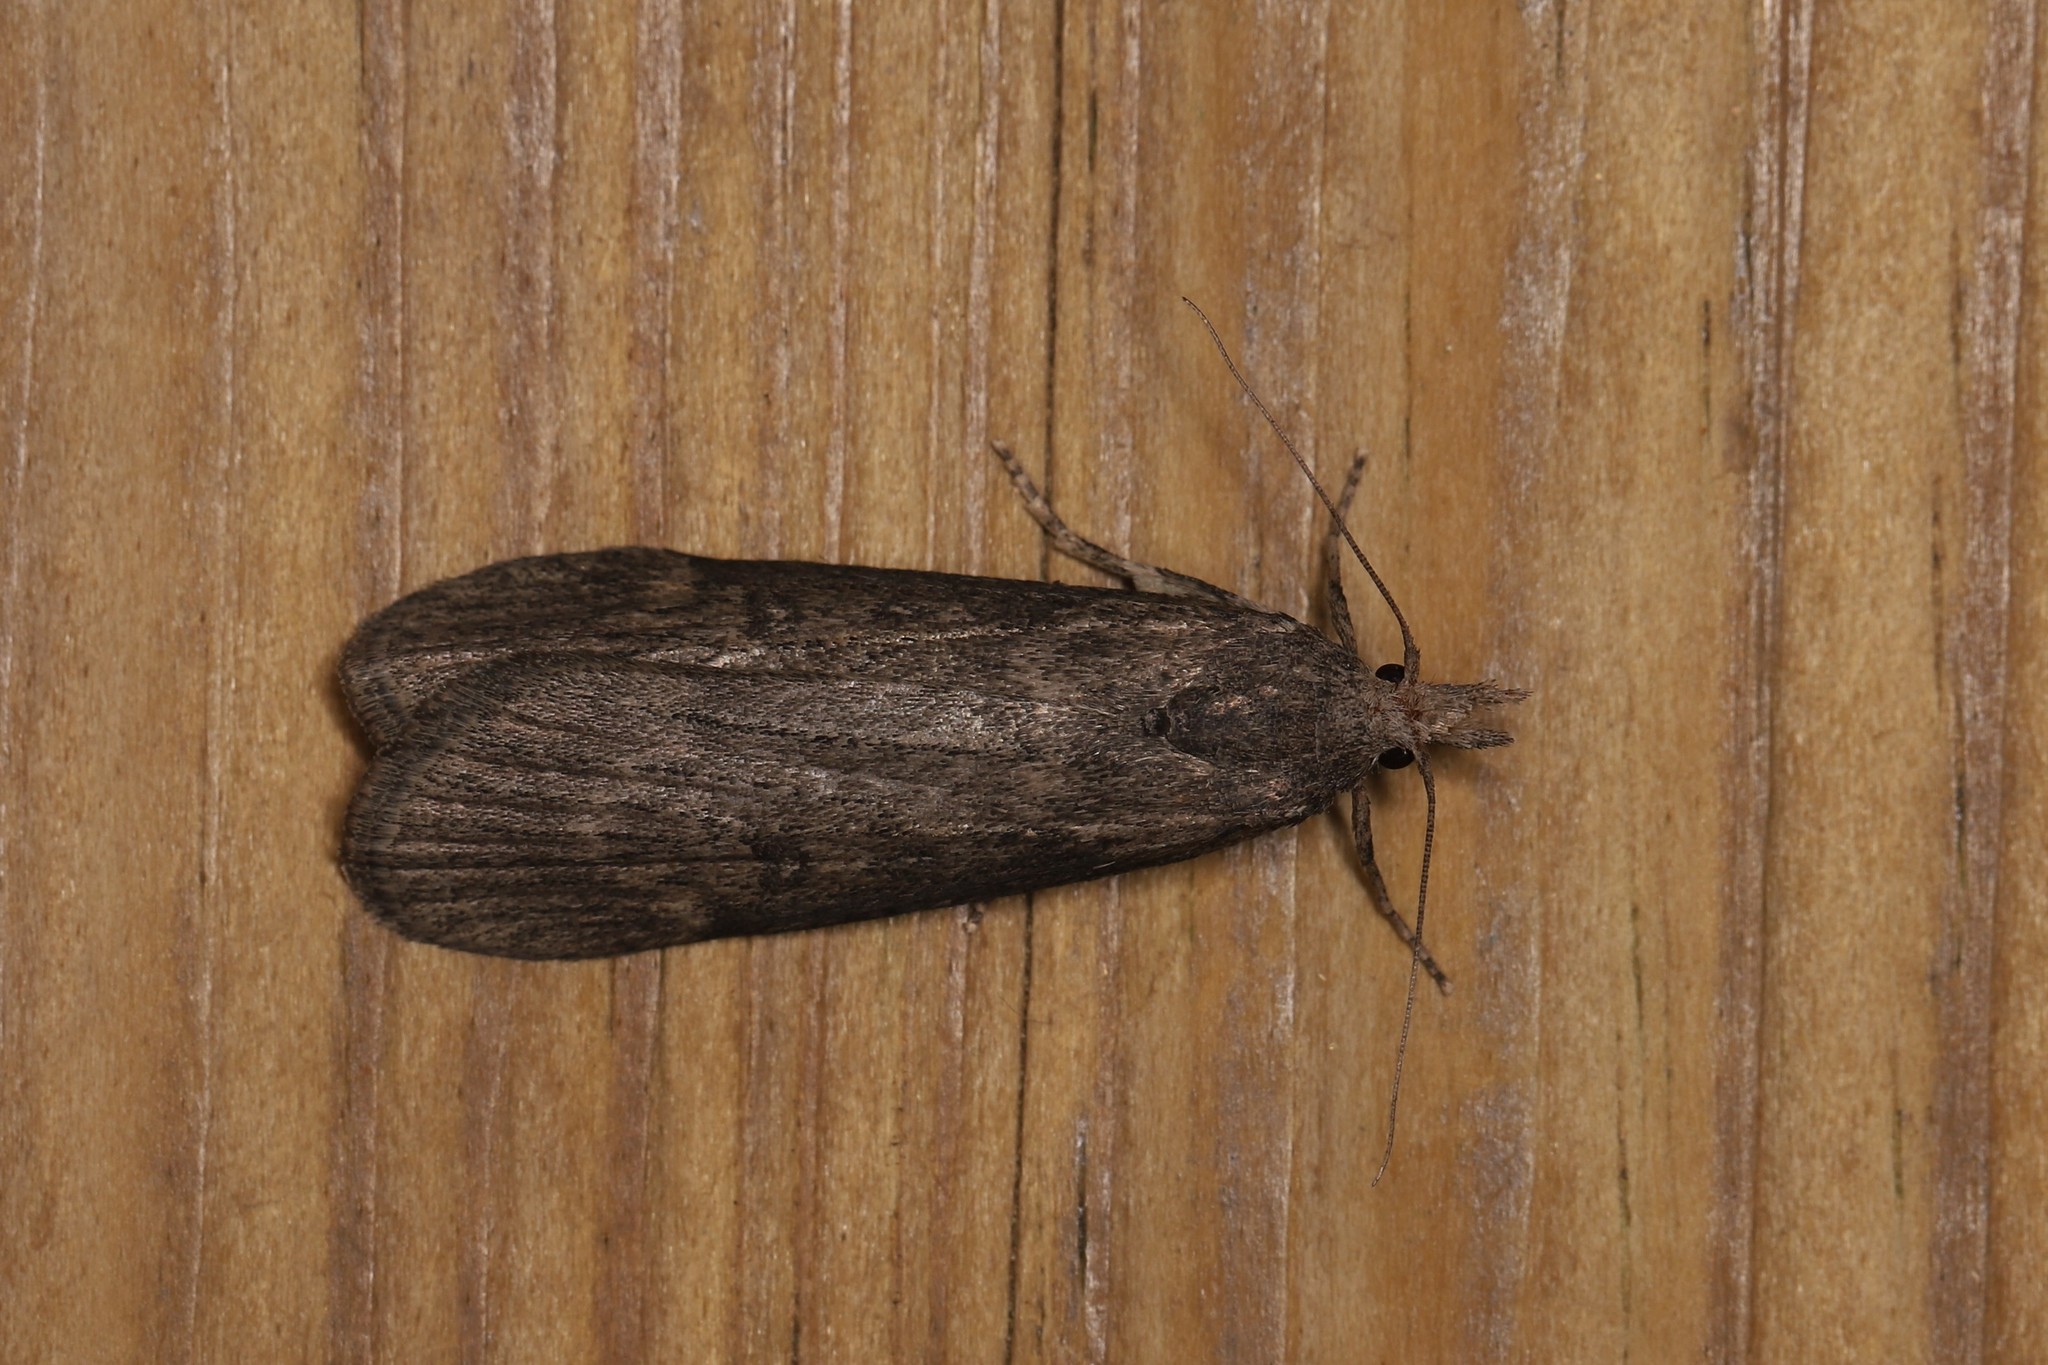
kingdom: Animalia
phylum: Arthropoda
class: Insecta
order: Lepidoptera
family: Pyralidae
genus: Lamoria
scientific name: Lamoria anella
